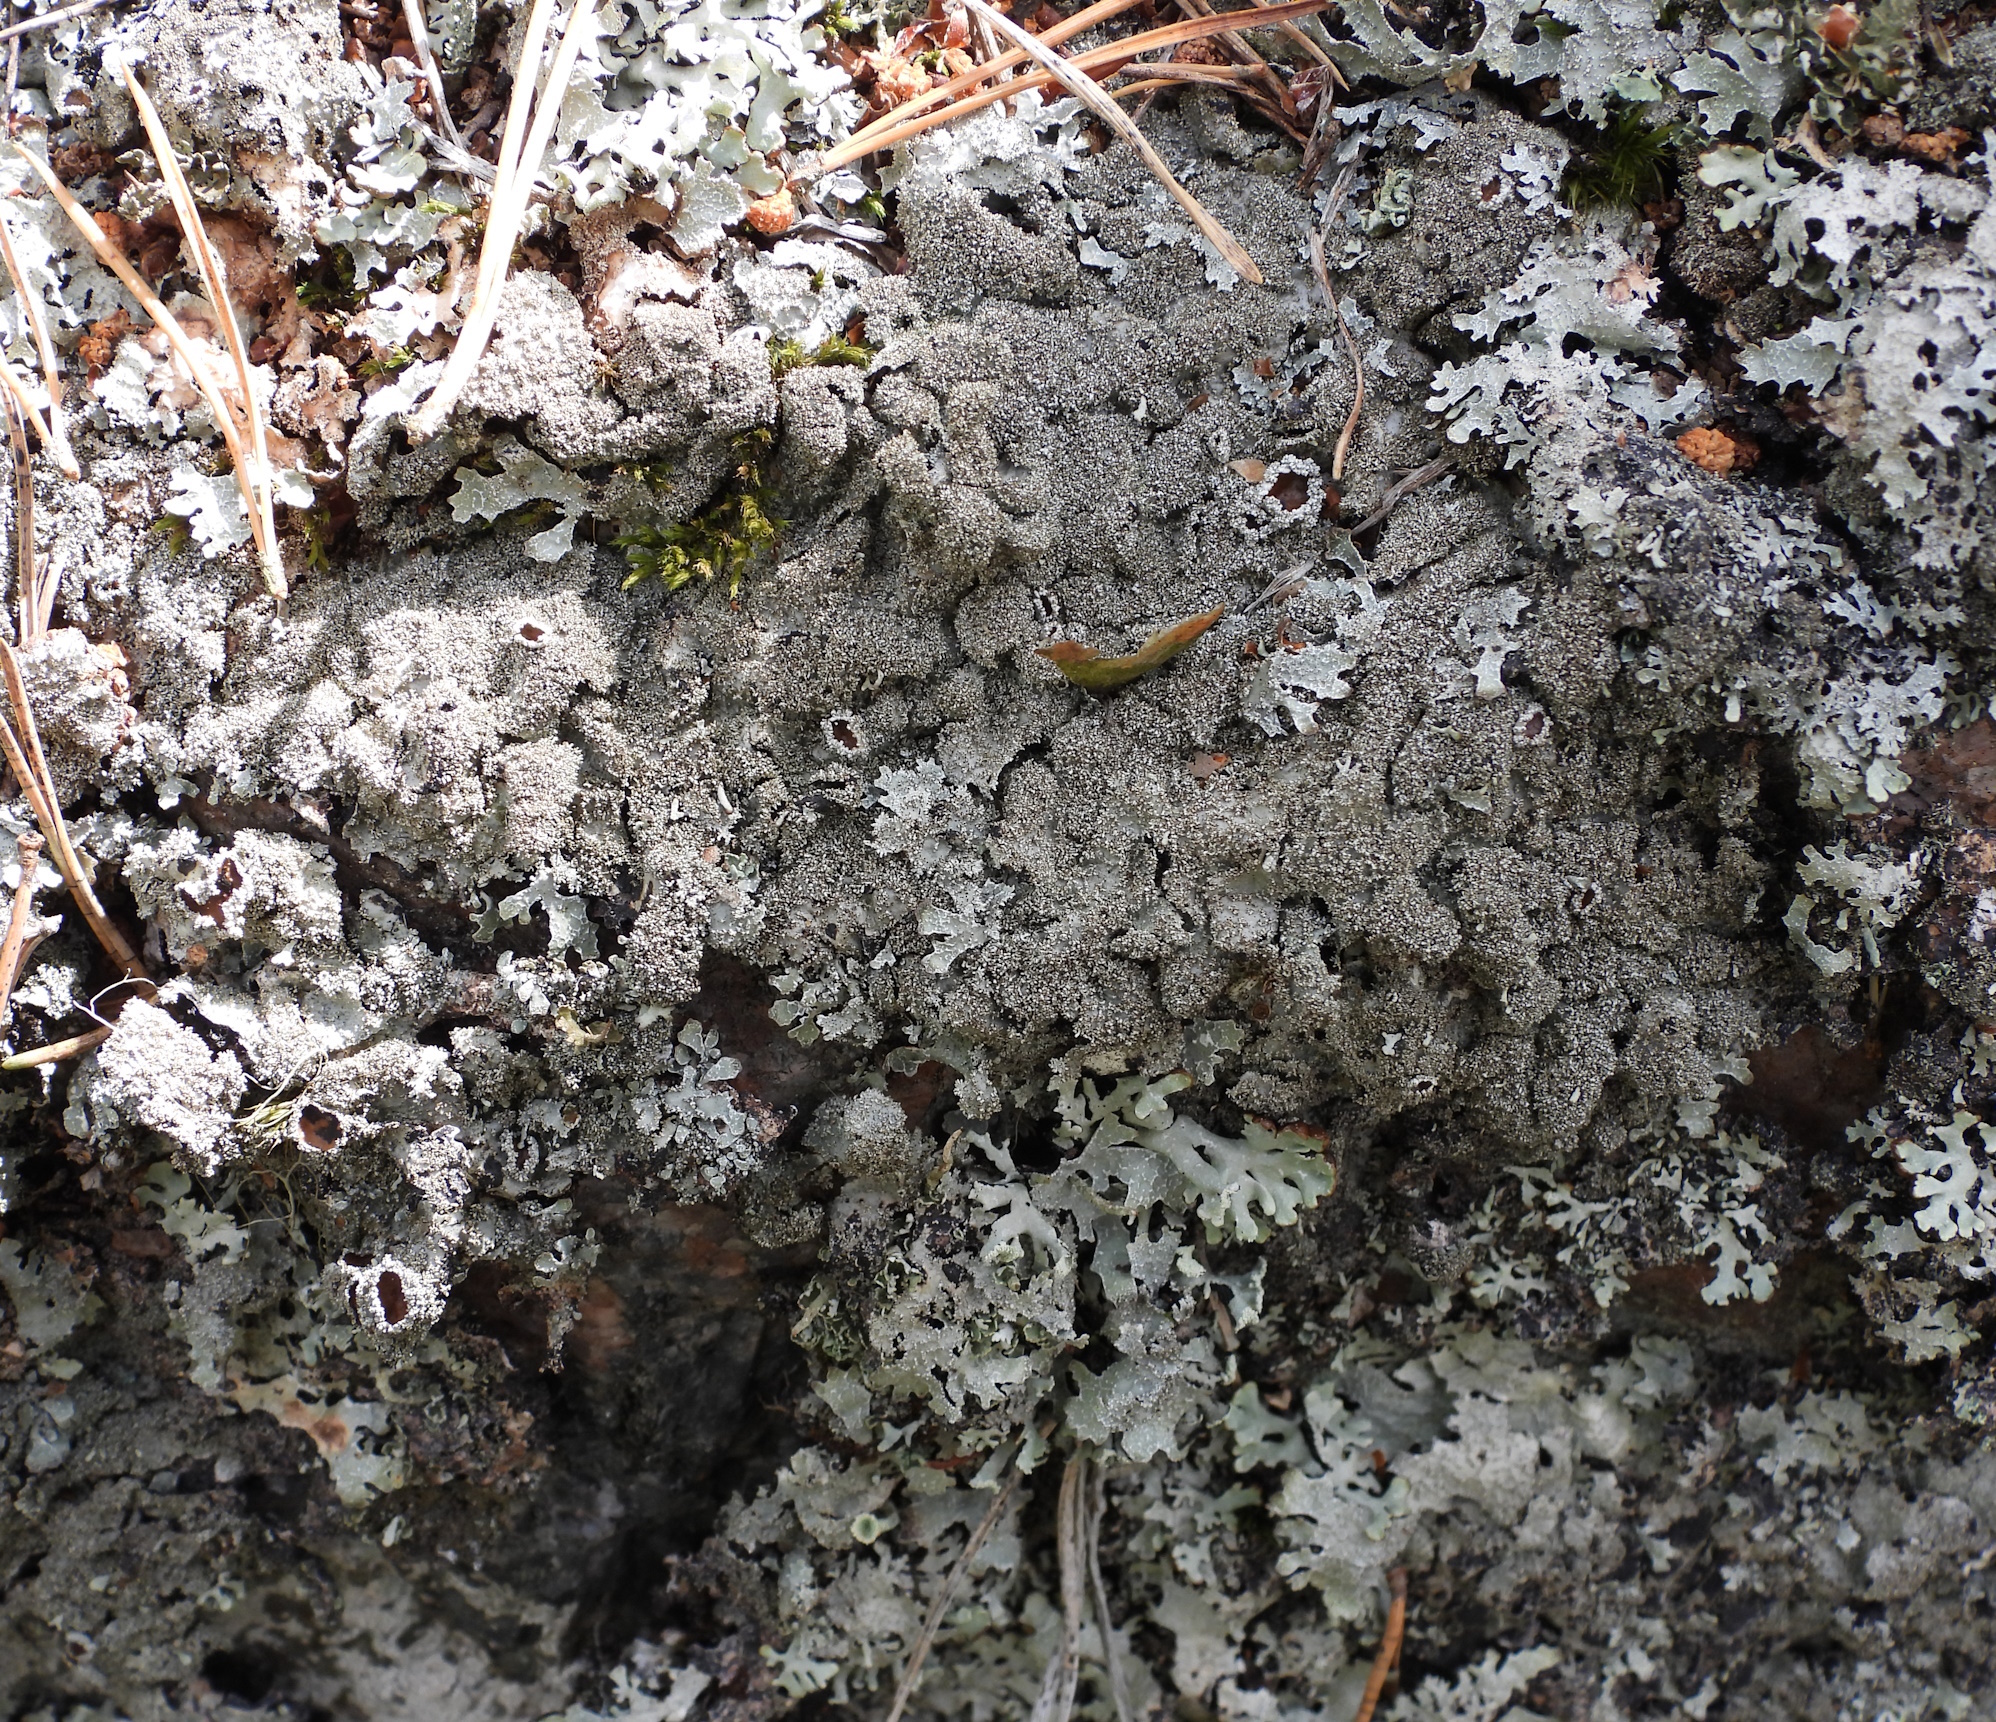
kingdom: Fungi
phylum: Ascomycota
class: Lecanoromycetes
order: Lecanorales
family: Parmeliaceae
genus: Parmelia
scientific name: Parmelia saxatilis
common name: Salted shield lichen
